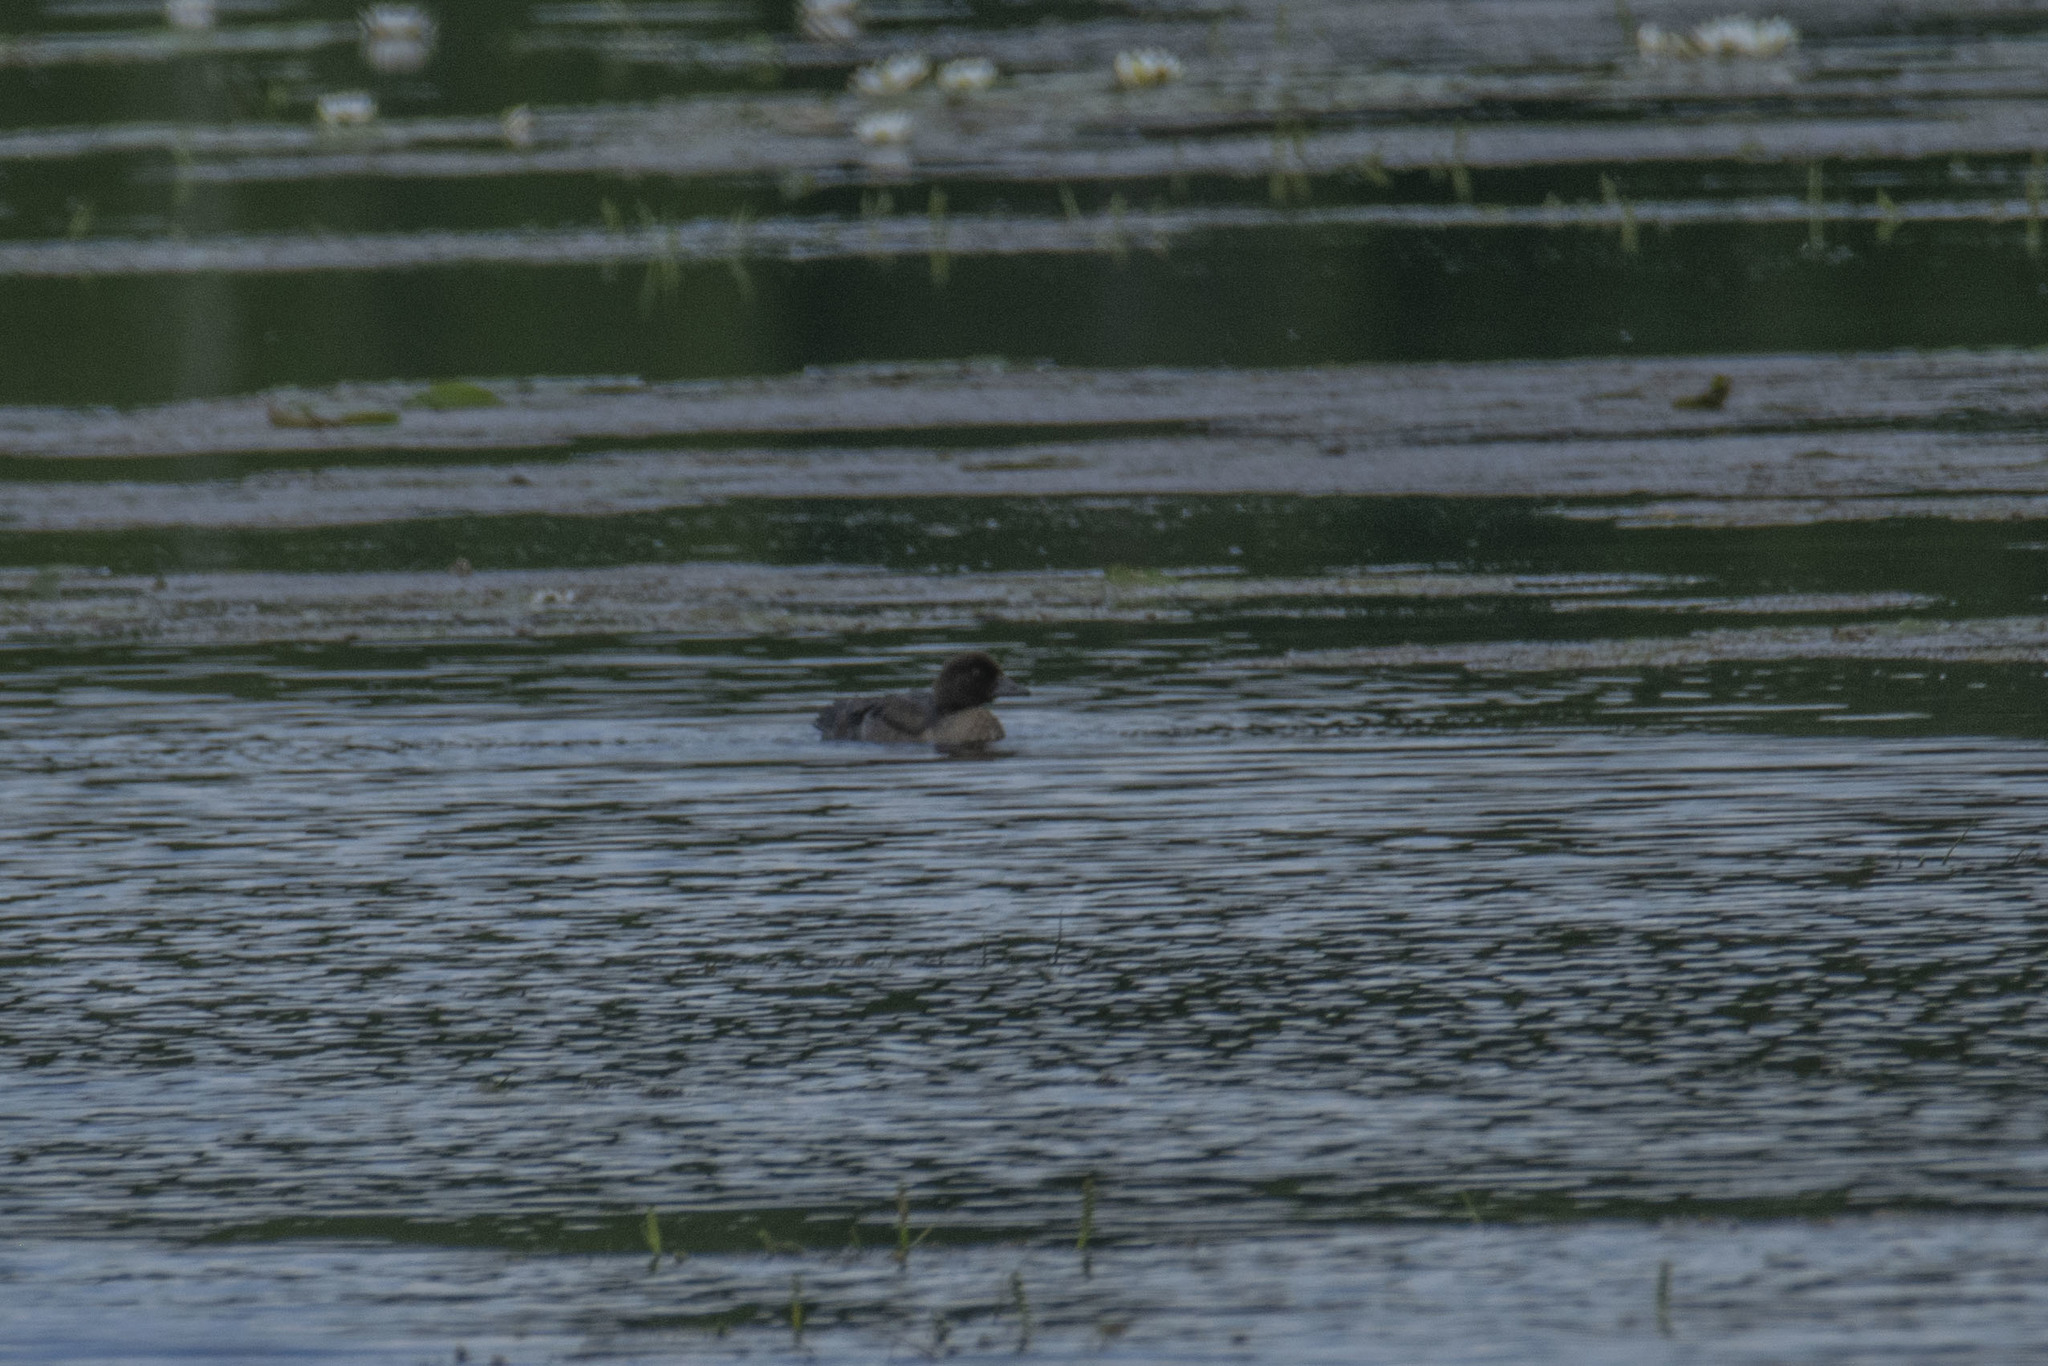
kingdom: Animalia
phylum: Chordata
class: Aves
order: Anseriformes
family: Anatidae
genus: Bucephala
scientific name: Bucephala clangula
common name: Common goldeneye
